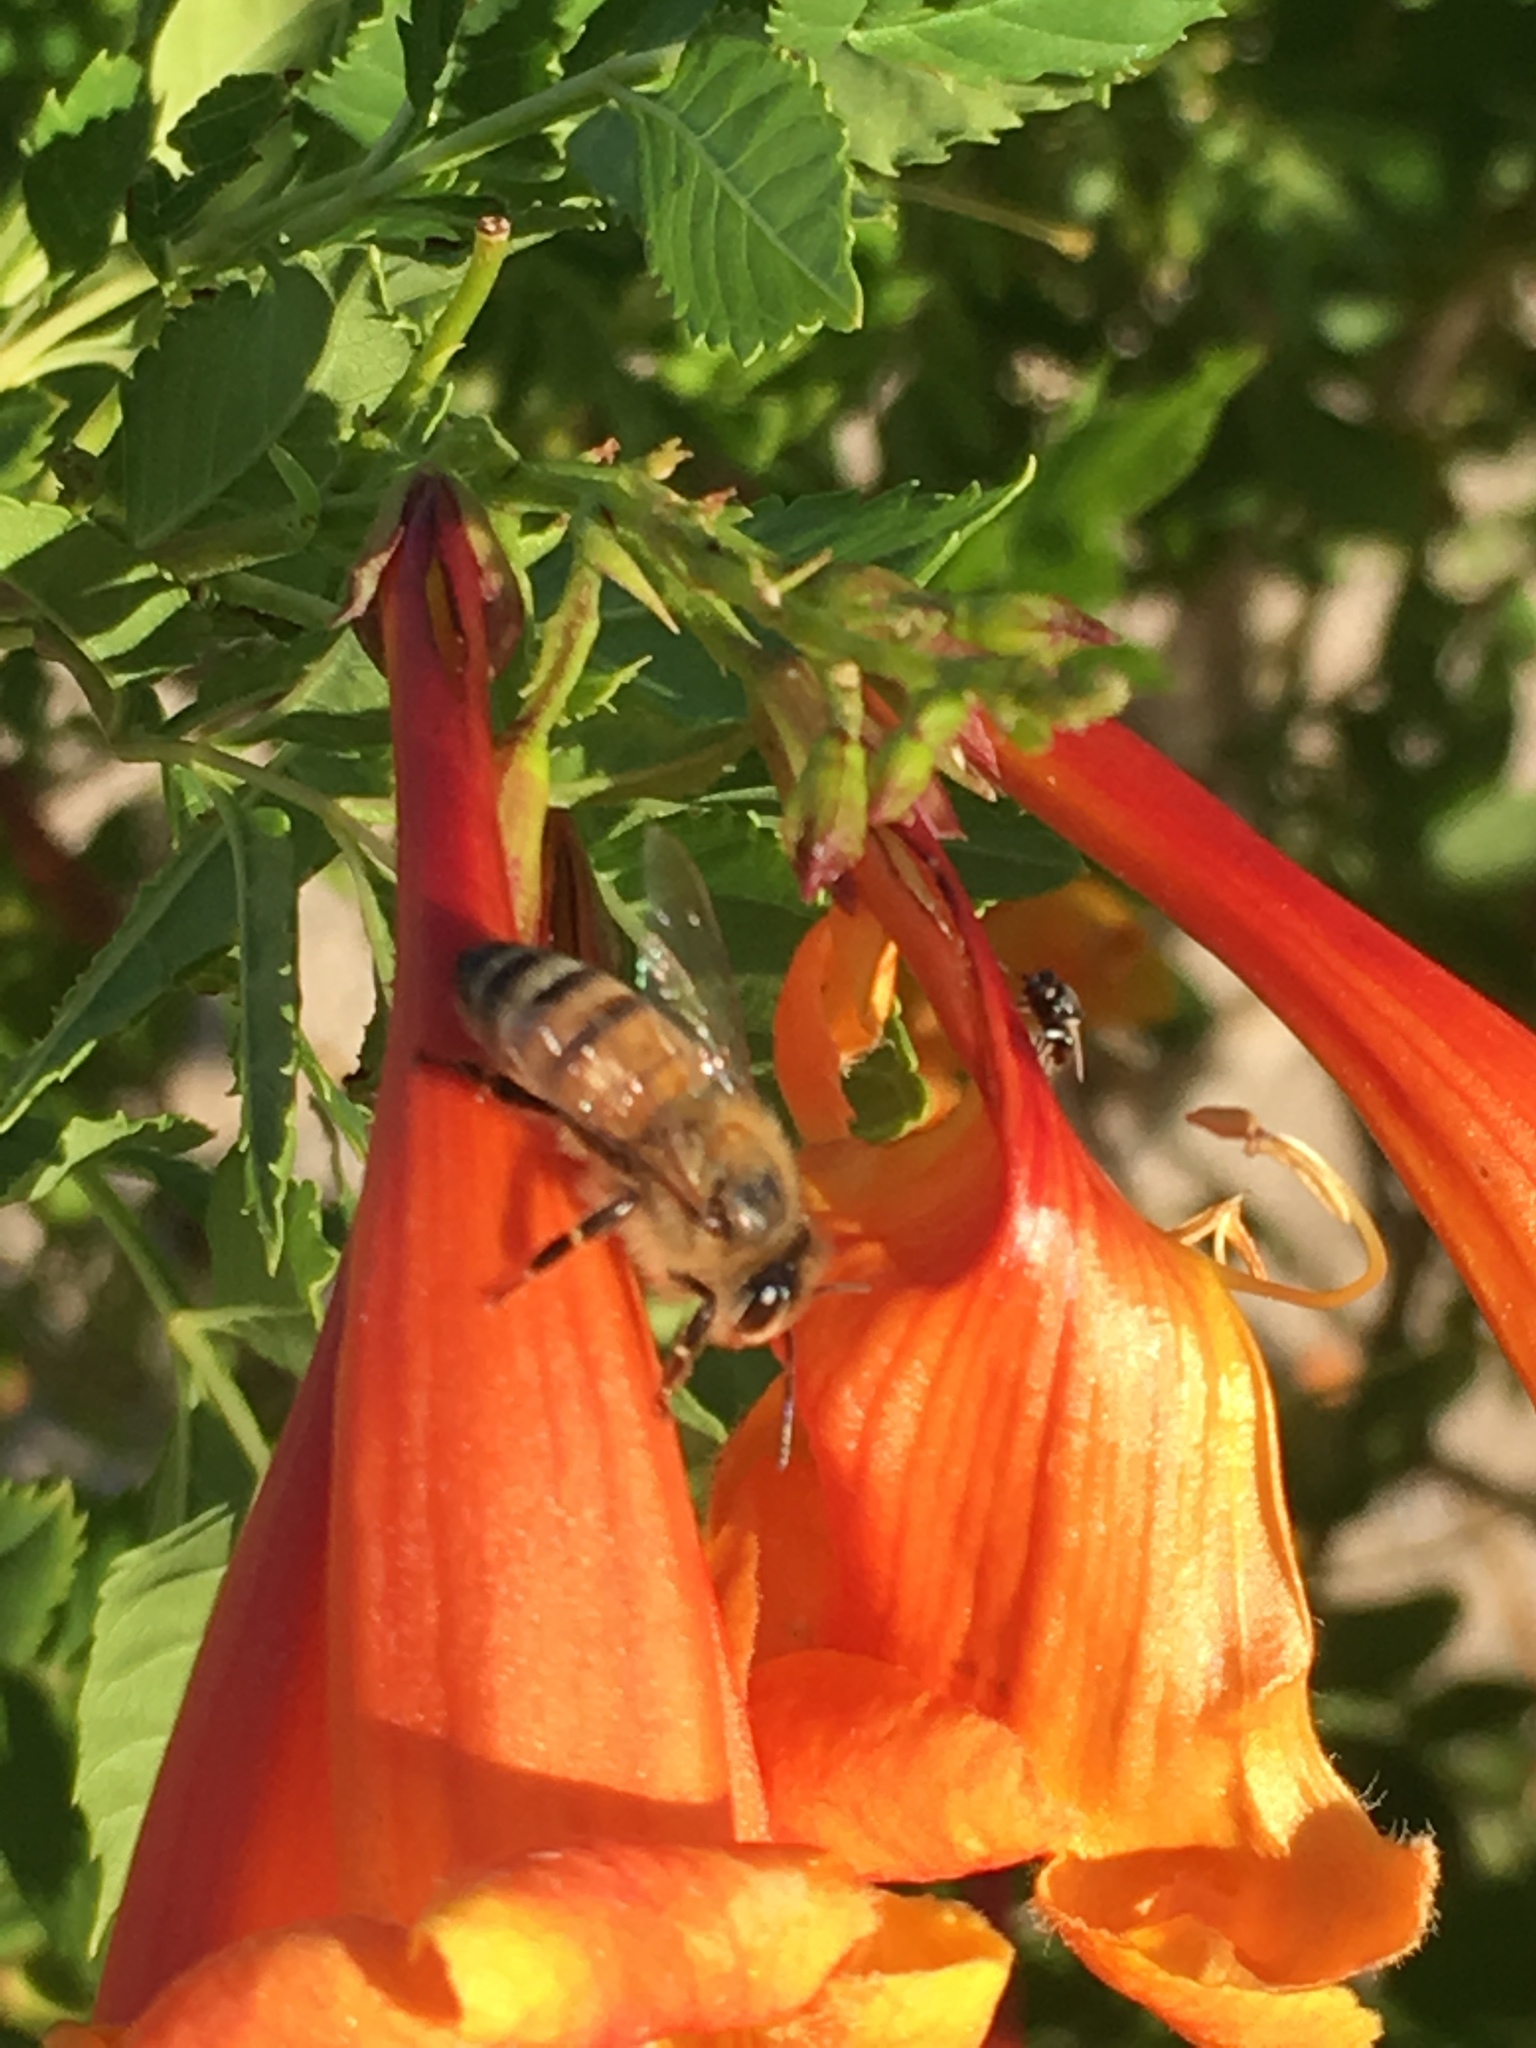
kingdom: Animalia
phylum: Arthropoda
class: Insecta
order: Hymenoptera
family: Apidae
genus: Apis
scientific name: Apis mellifera
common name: Honey bee
